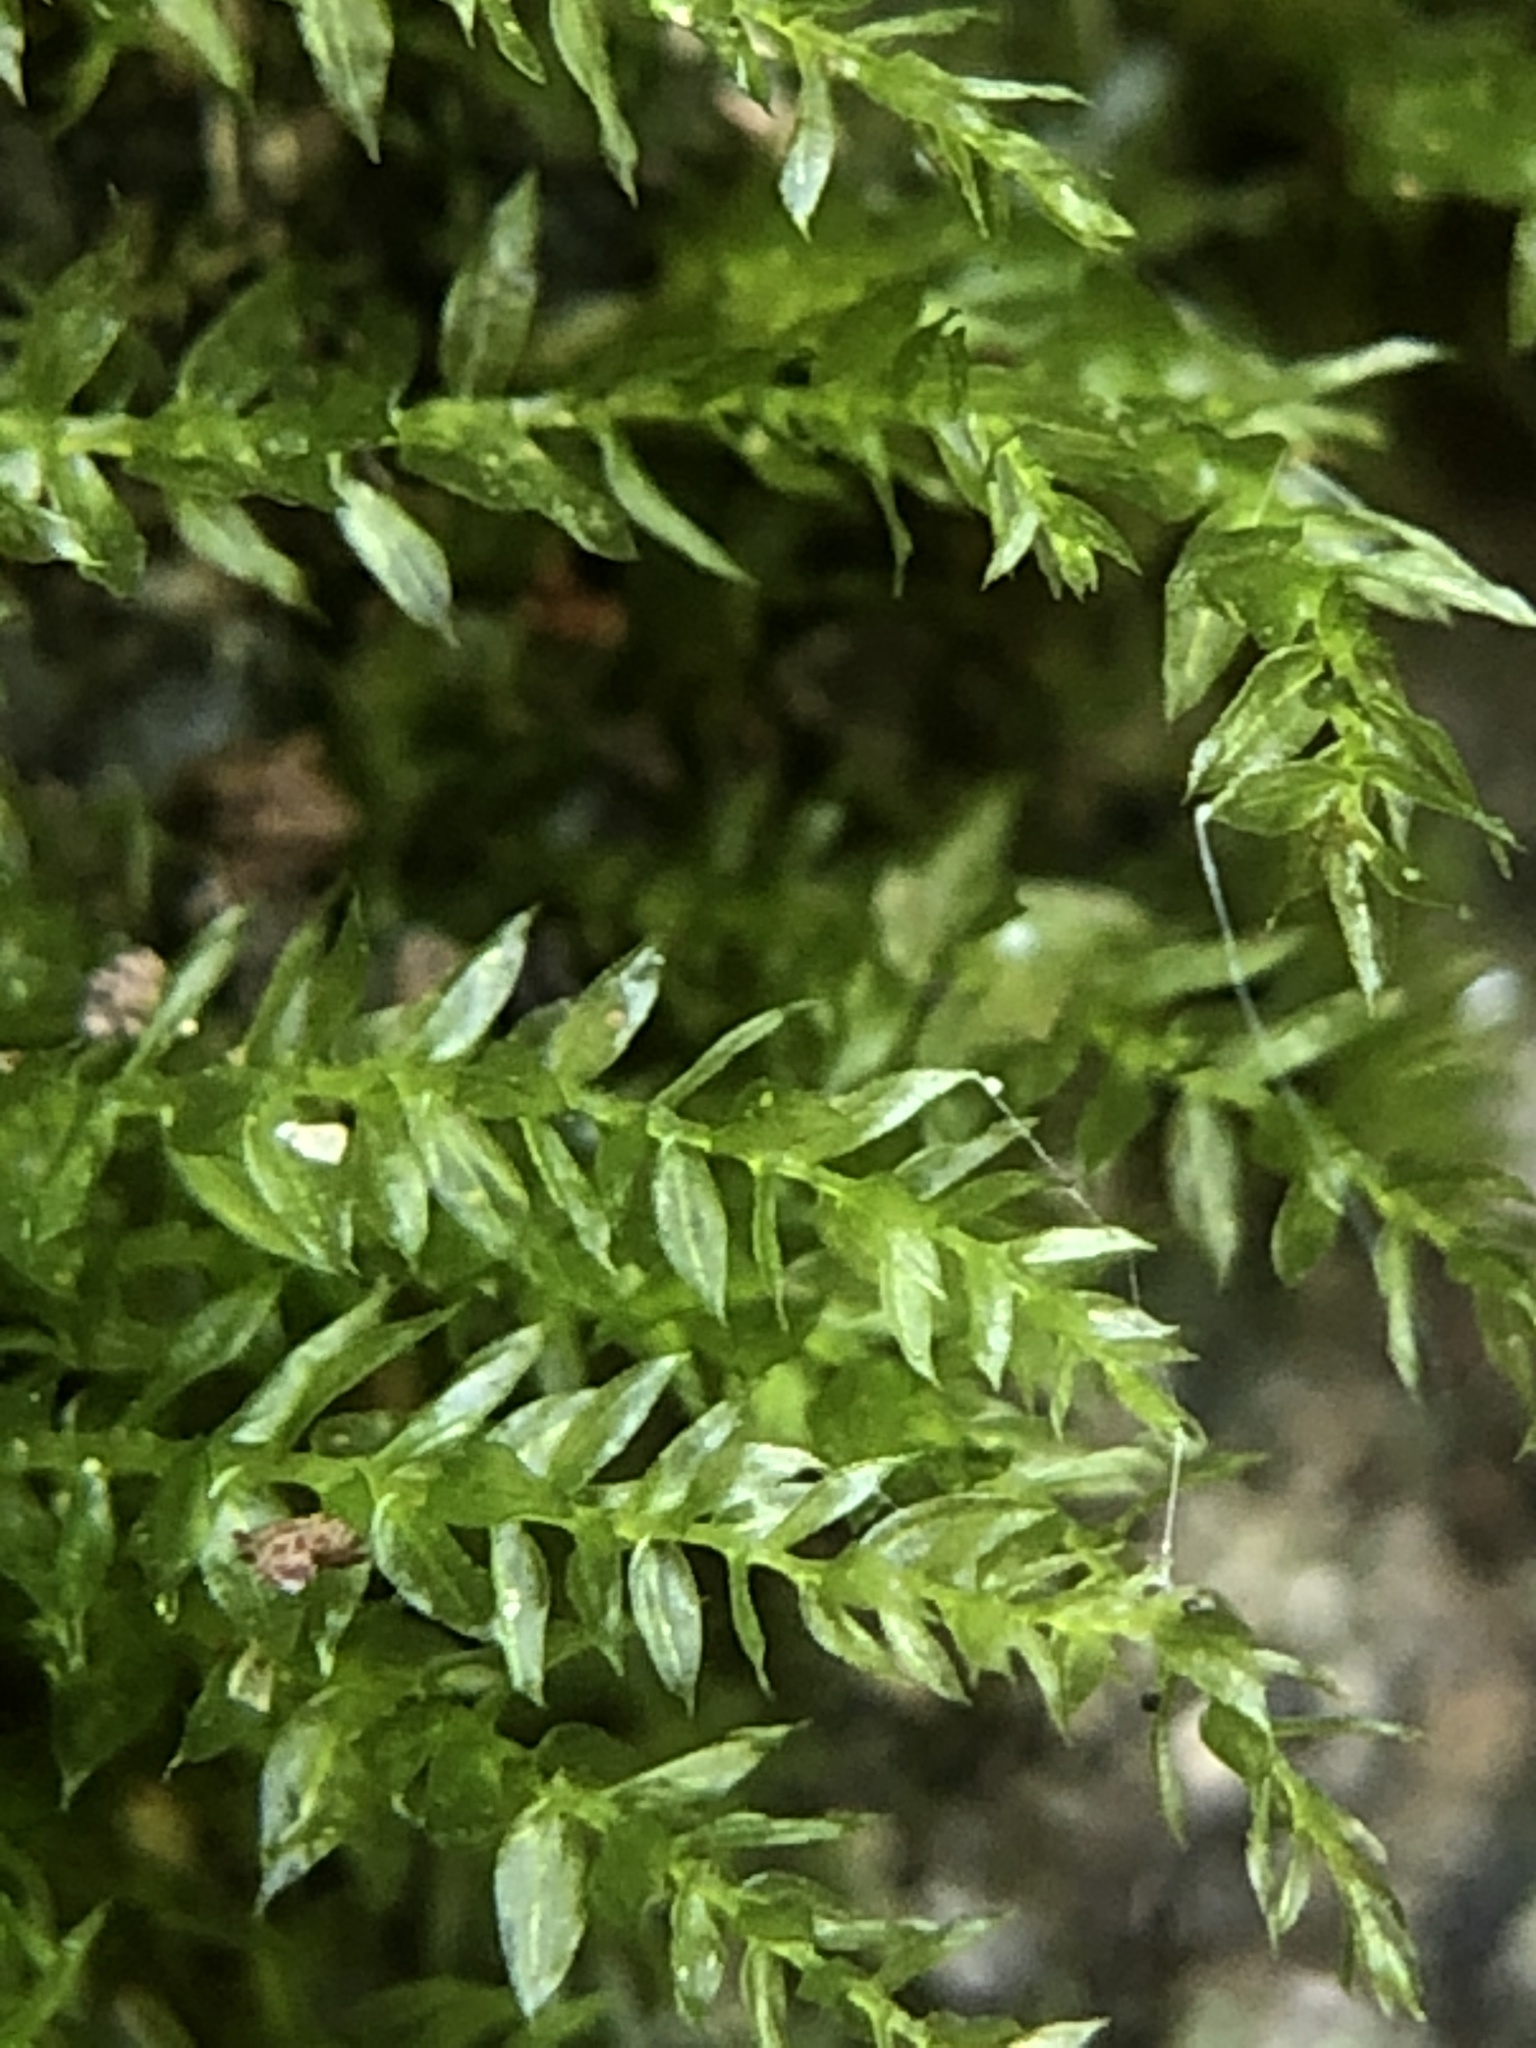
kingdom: Plantae
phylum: Bryophyta
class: Bryopsida
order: Hypnales
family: Brachytheciaceae
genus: Oxyrrhynchium
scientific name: Oxyrrhynchium hians
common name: Spreading beaked moss
